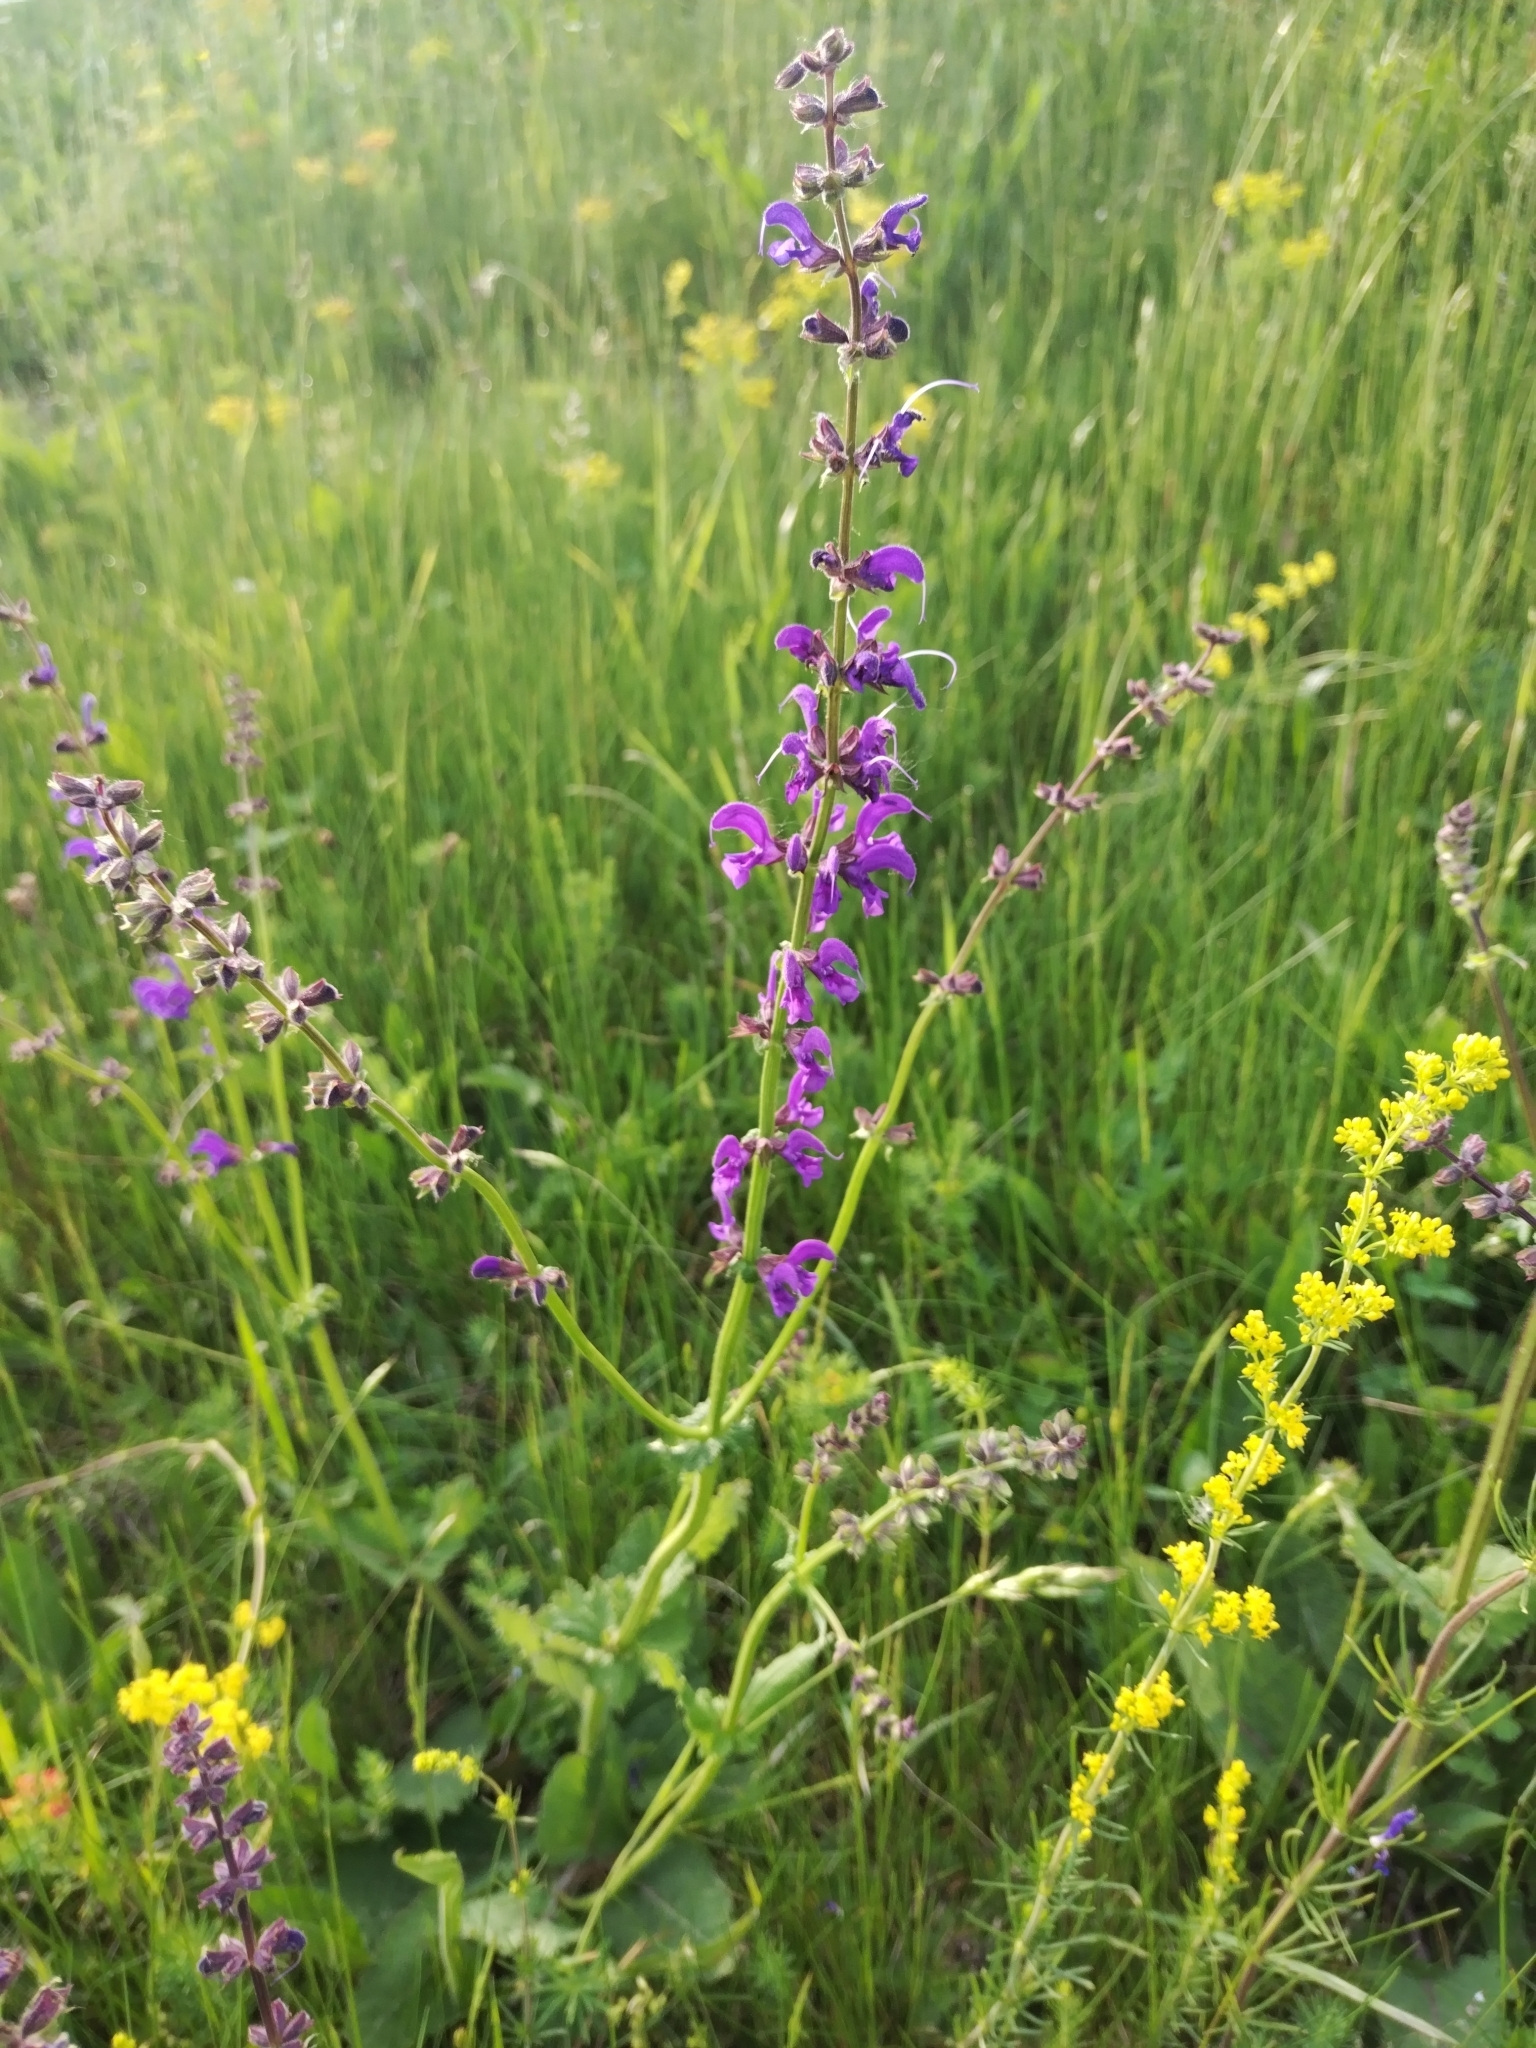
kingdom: Plantae
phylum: Tracheophyta
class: Magnoliopsida
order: Lamiales
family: Lamiaceae
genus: Salvia
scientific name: Salvia pratensis
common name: Meadow sage
